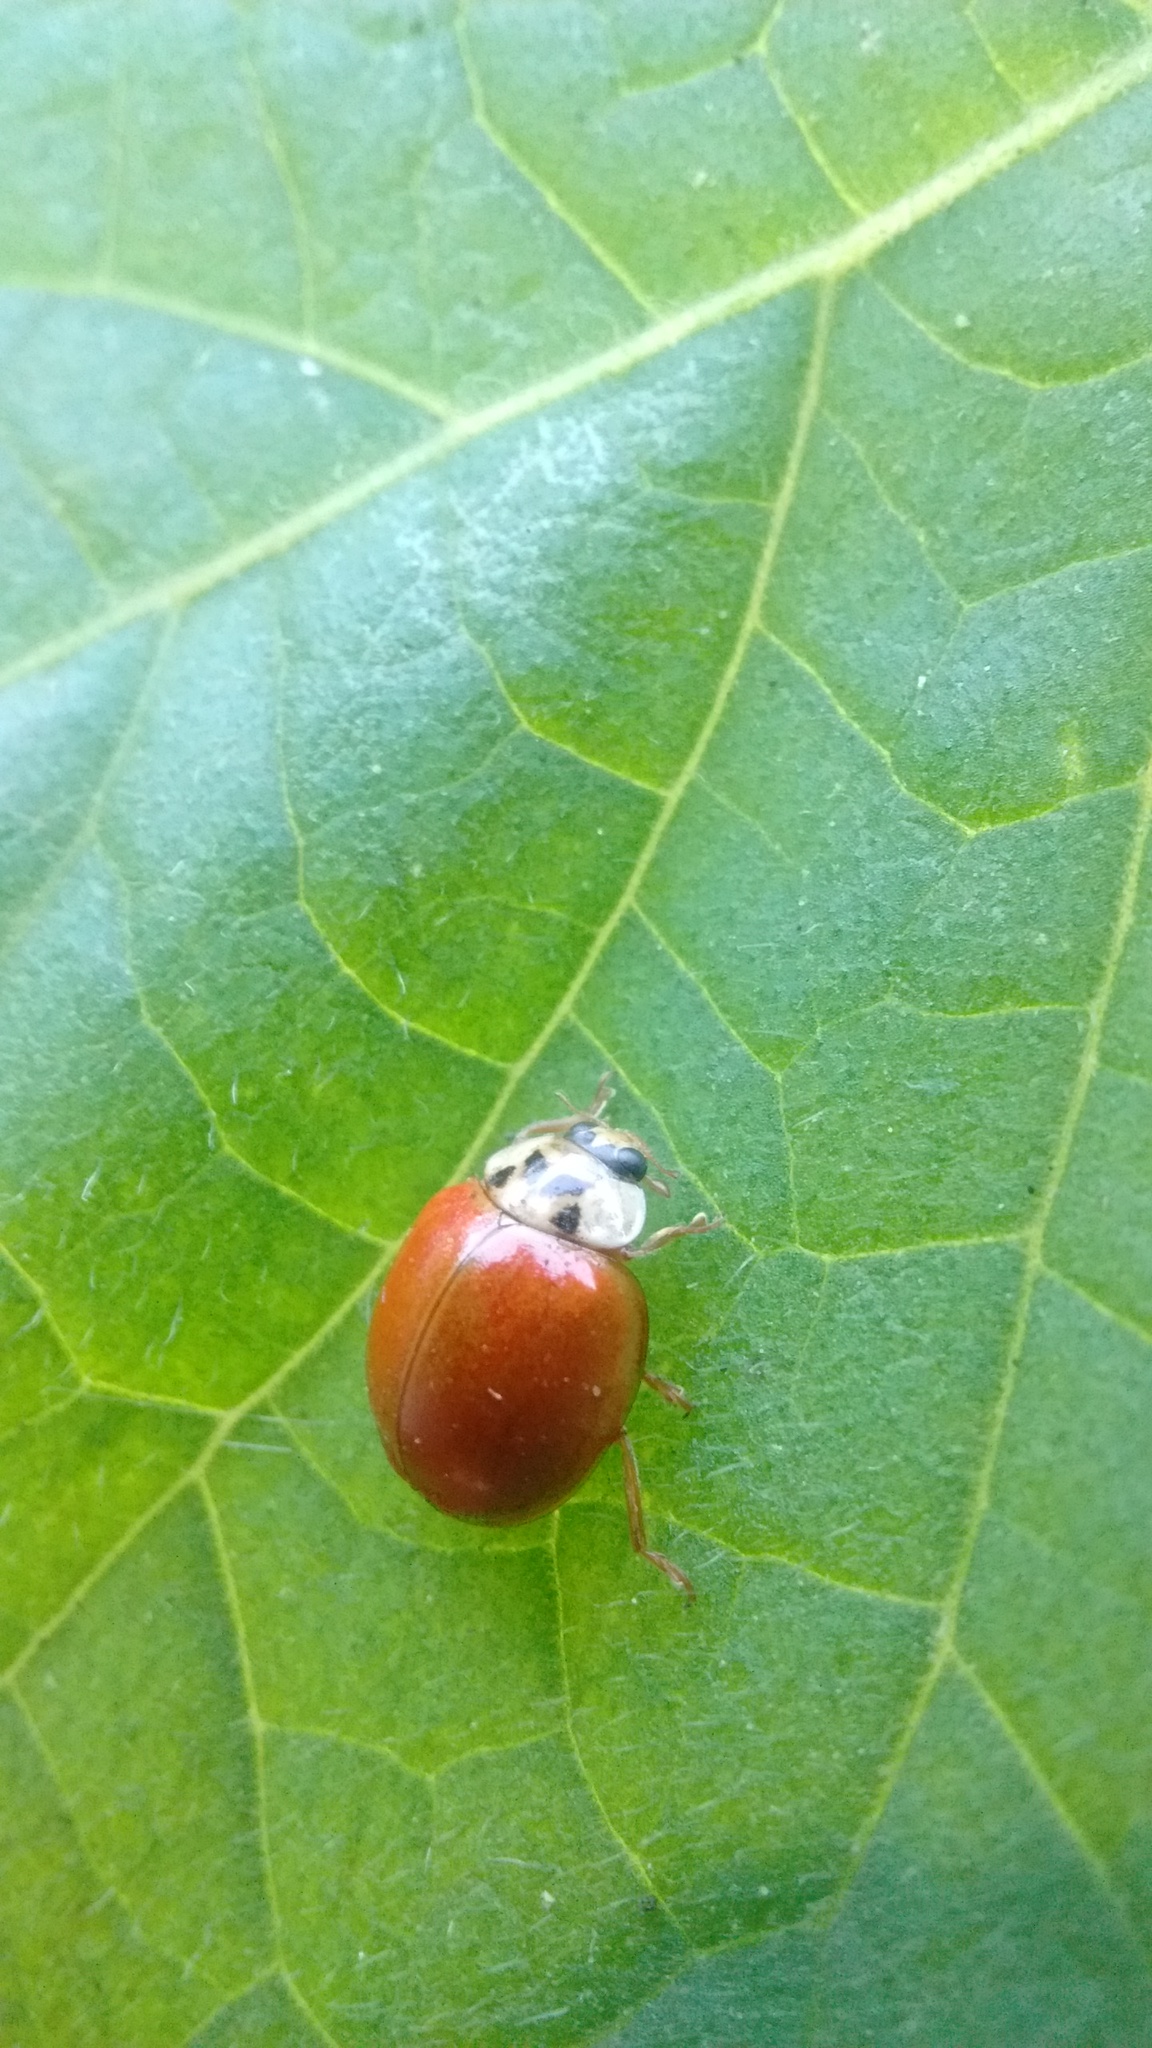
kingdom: Animalia
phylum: Arthropoda
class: Insecta
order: Coleoptera
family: Coccinellidae
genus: Harmonia
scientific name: Harmonia axyridis
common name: Harlequin ladybird
